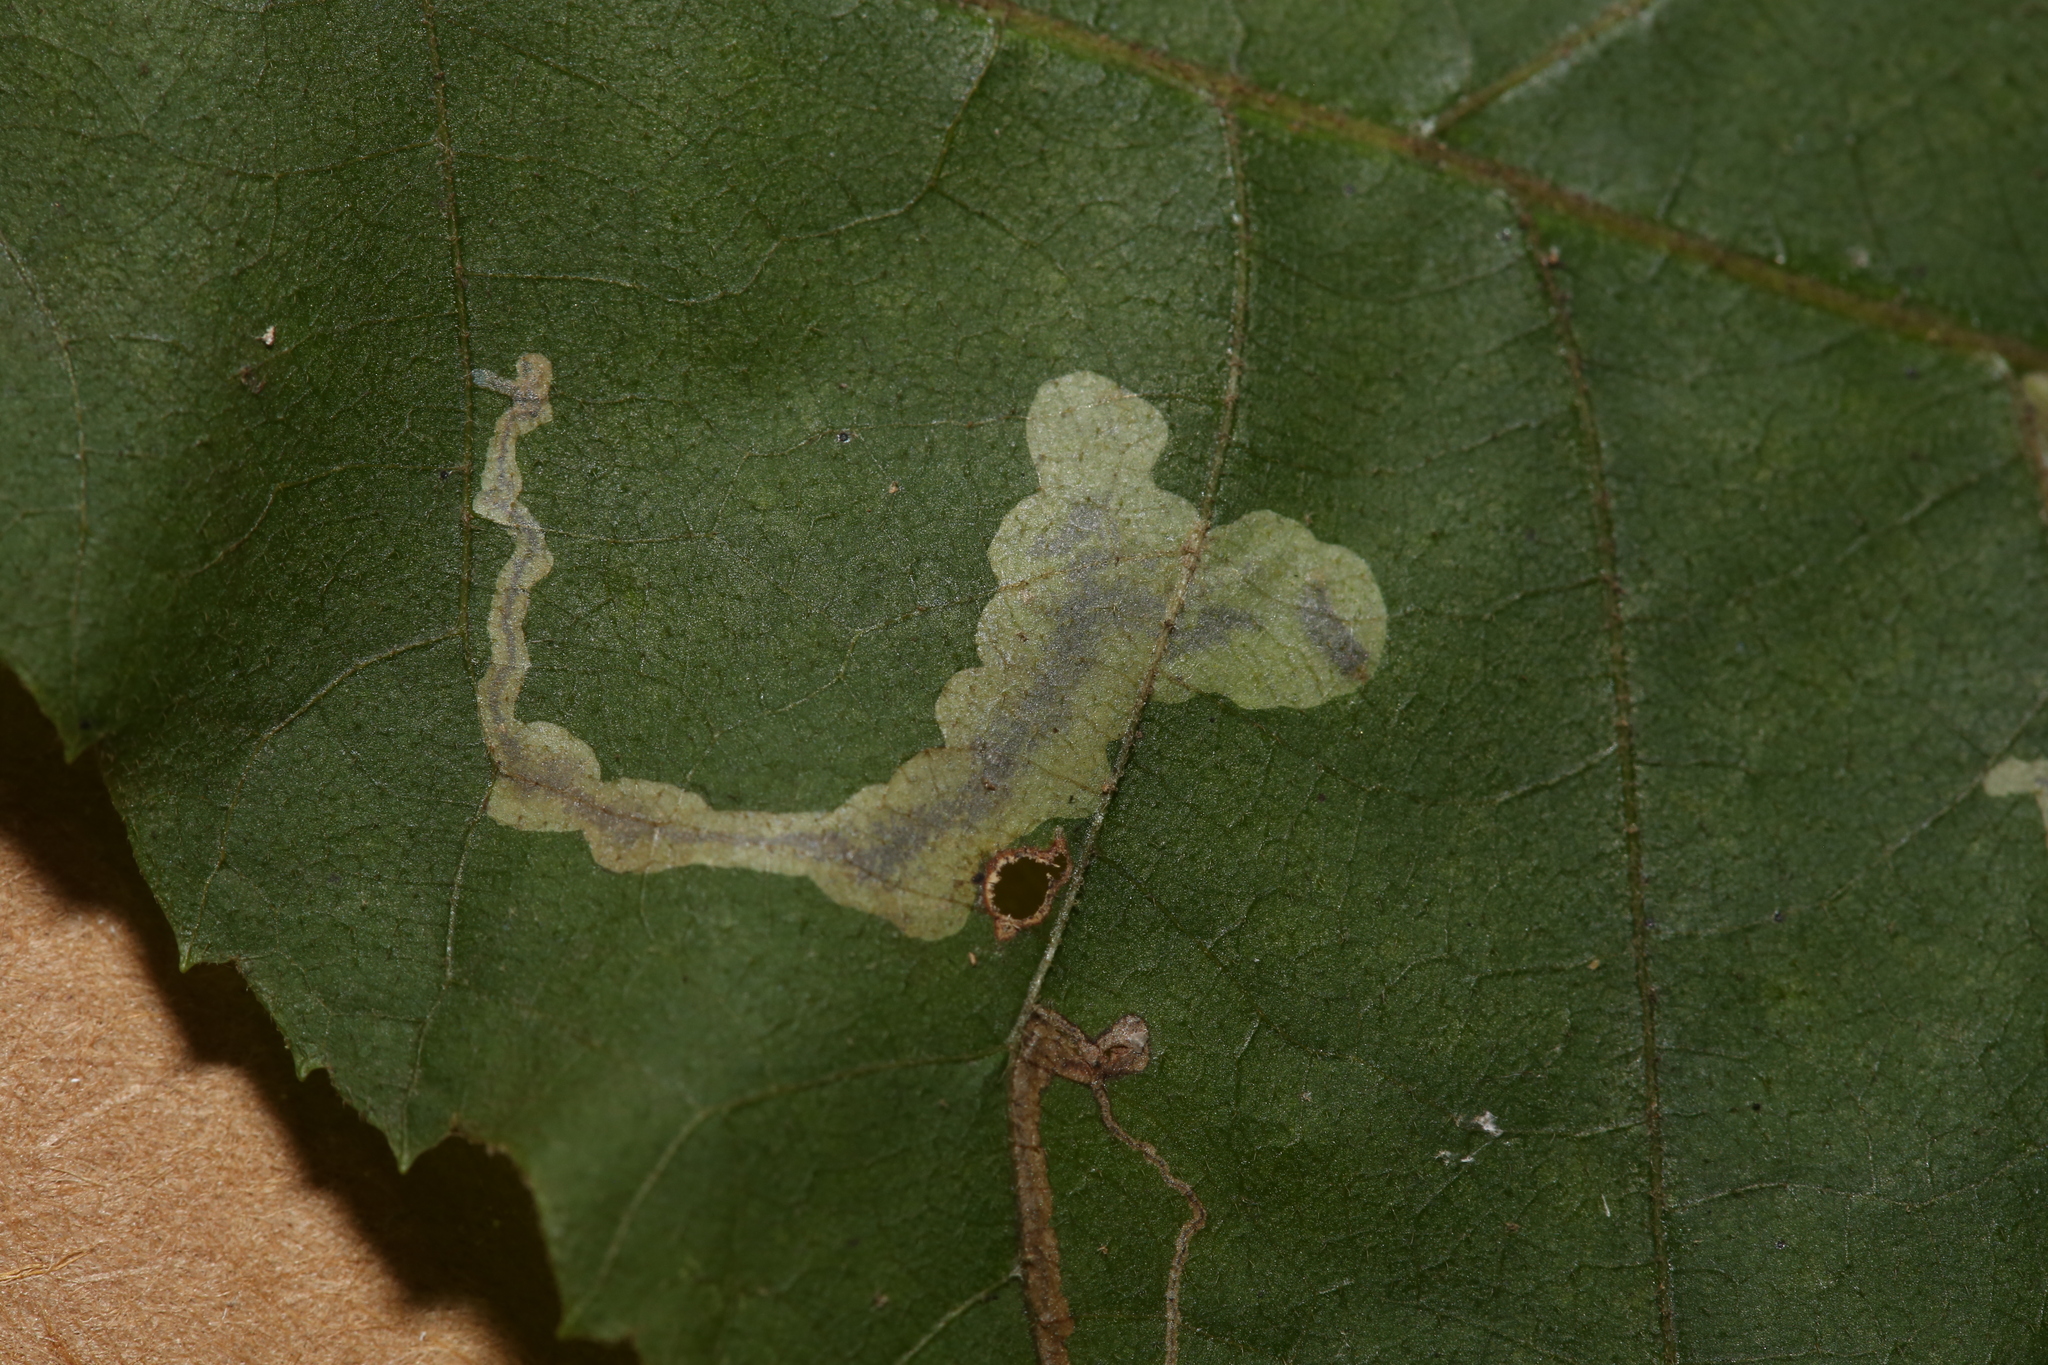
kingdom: Animalia
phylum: Arthropoda
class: Insecta
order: Lepidoptera
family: Gracillariidae
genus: Cameraria
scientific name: Cameraria caryaefoliella
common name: Pecan leafminer moth
